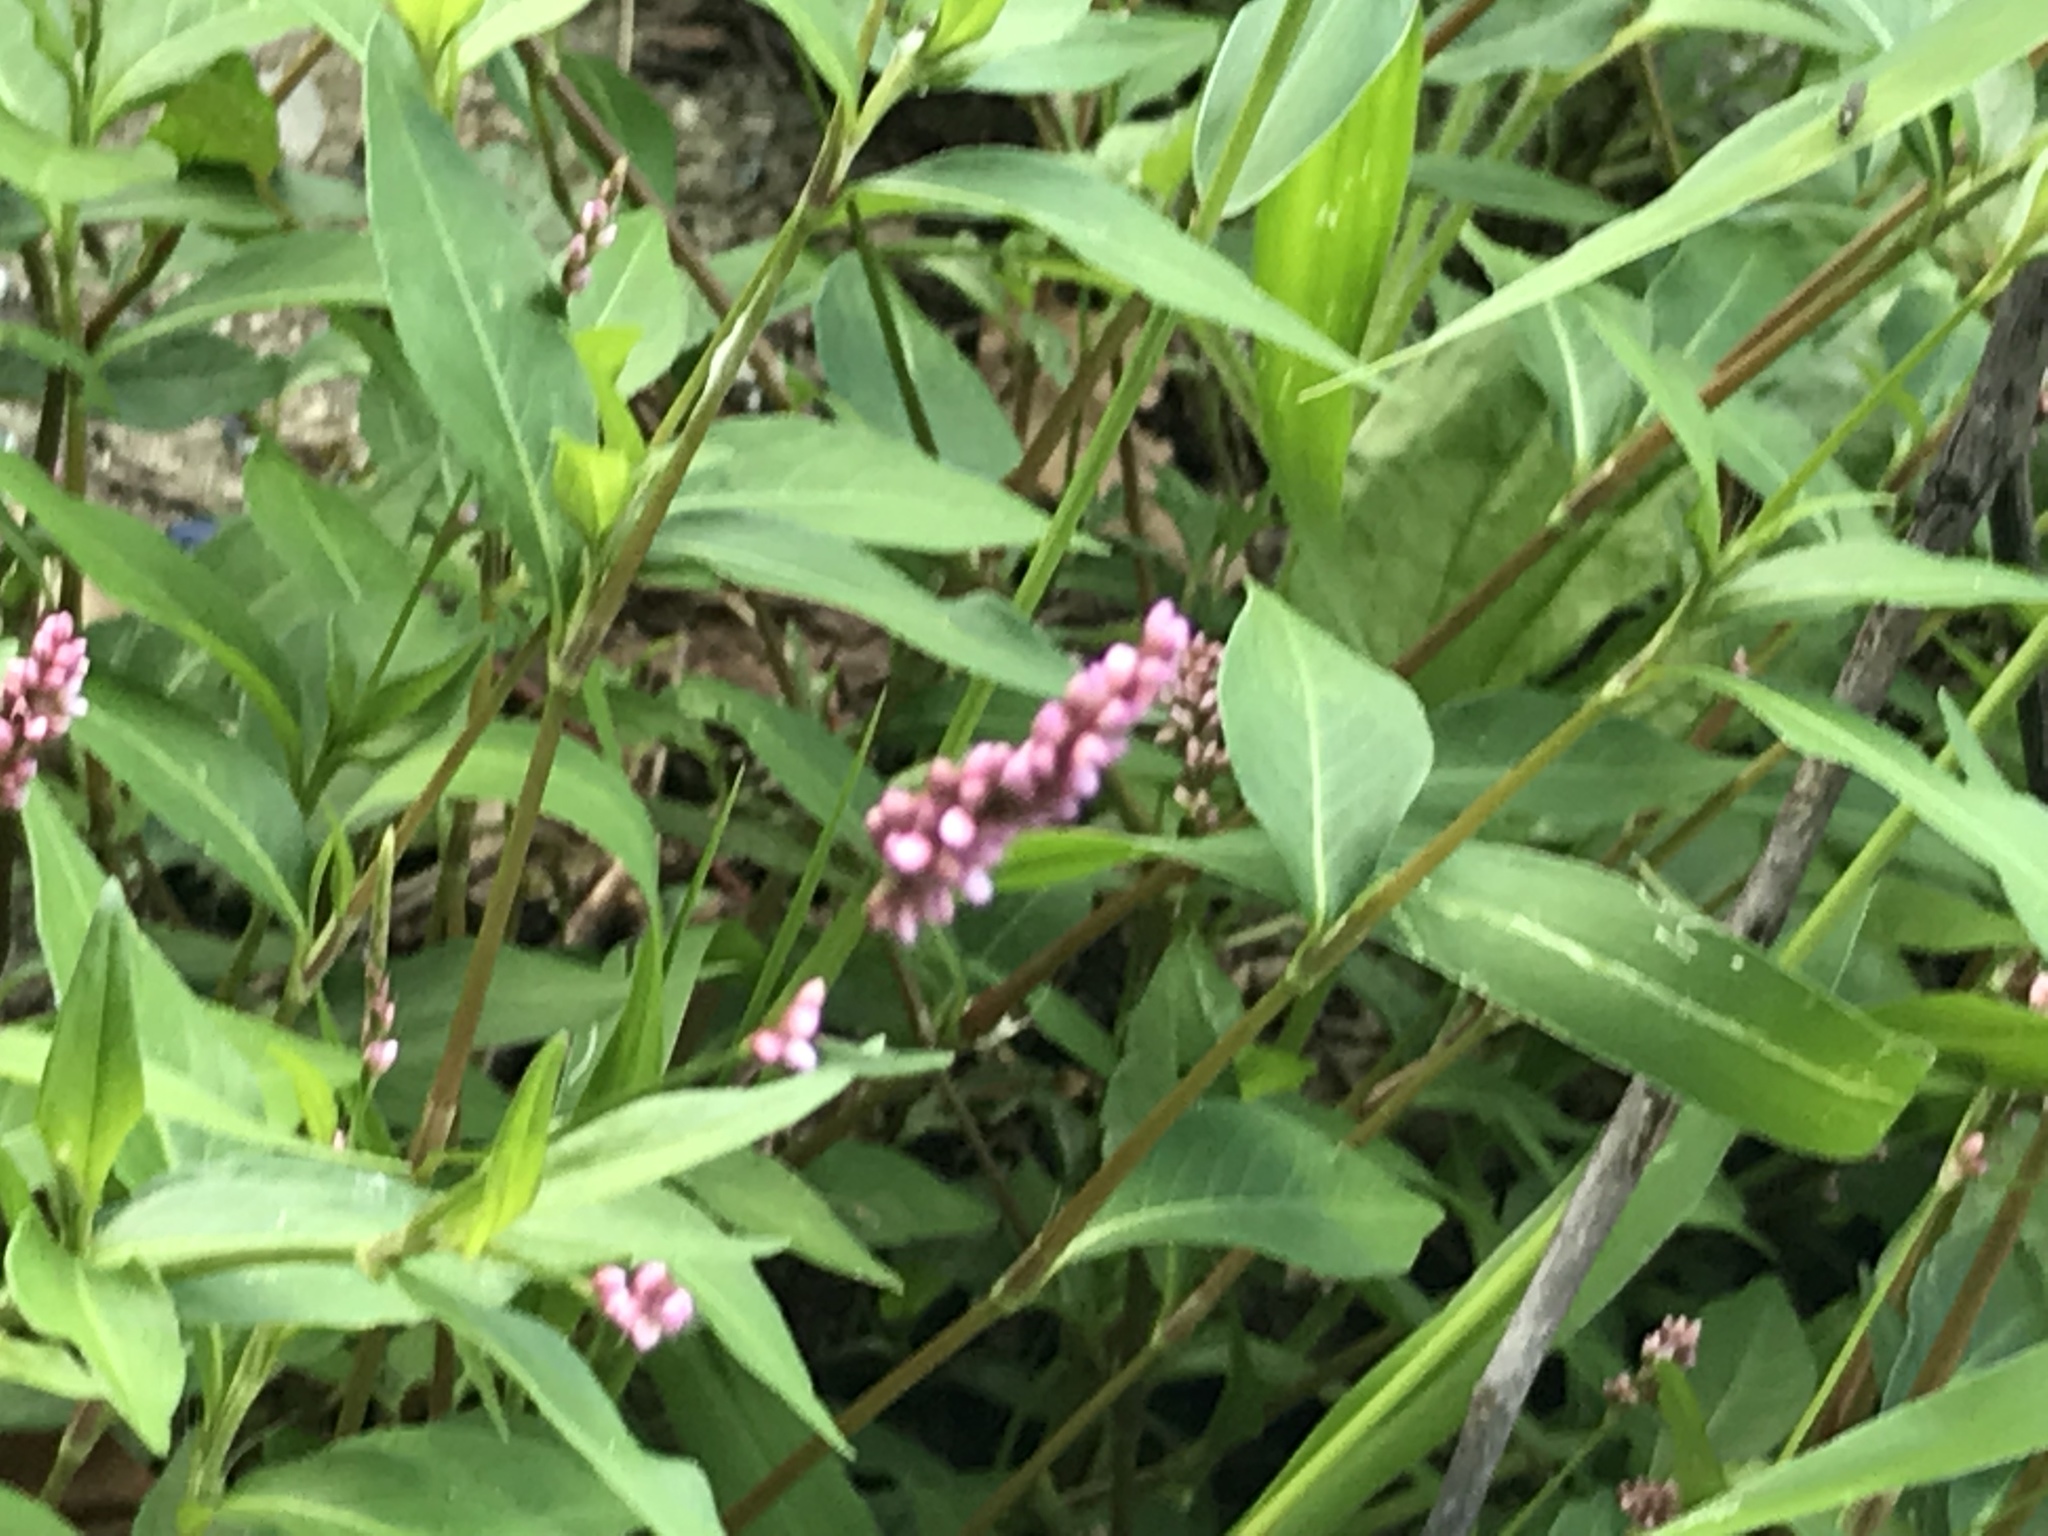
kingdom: Plantae
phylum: Tracheophyta
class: Magnoliopsida
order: Caryophyllales
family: Polygonaceae
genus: Persicaria
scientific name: Persicaria longiseta
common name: Bristly lady's-thumb
